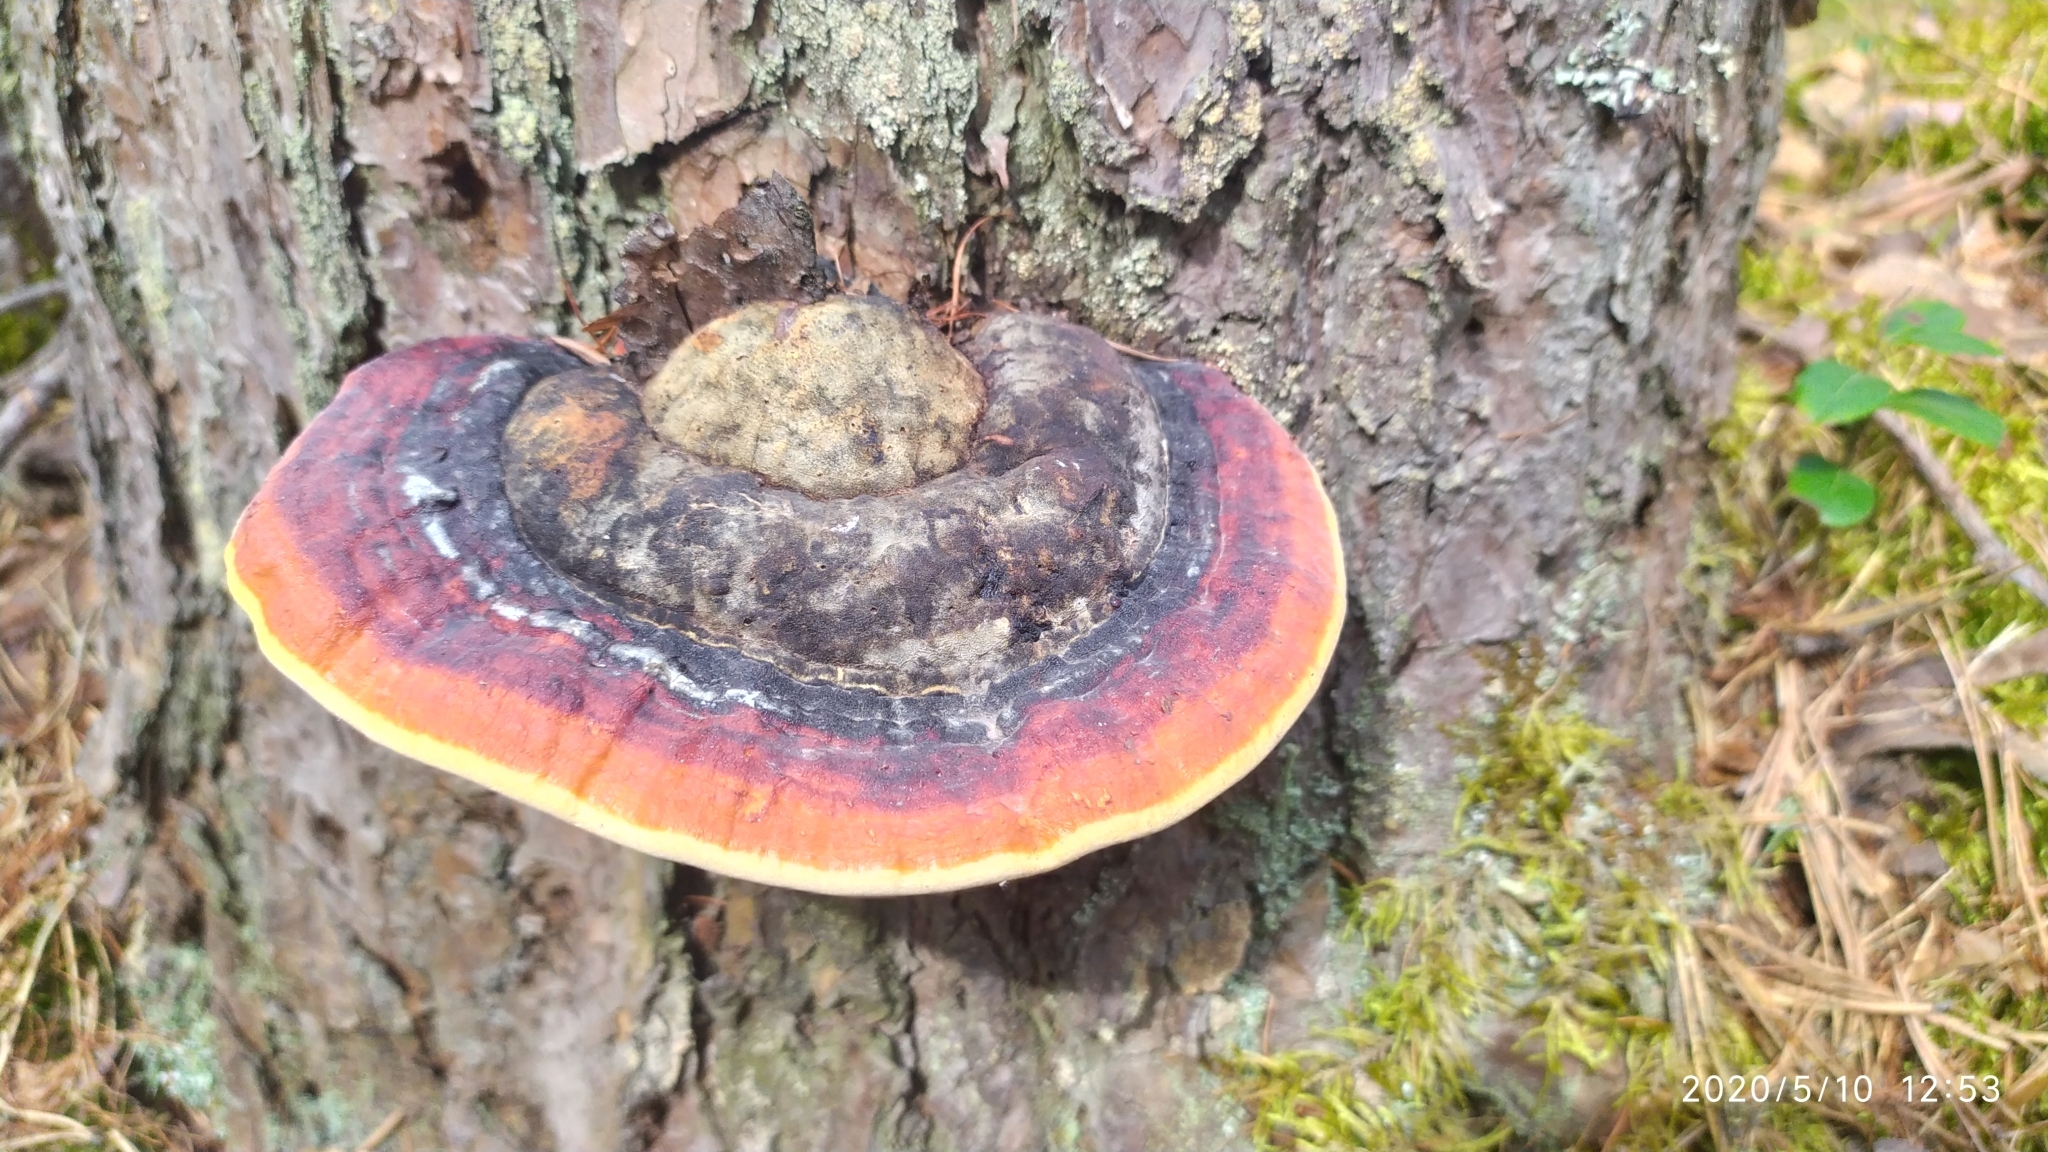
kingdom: Fungi
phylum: Basidiomycota
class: Agaricomycetes
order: Polyporales
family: Fomitopsidaceae
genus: Fomitopsis
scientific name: Fomitopsis pinicola
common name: Red-belted bracket
